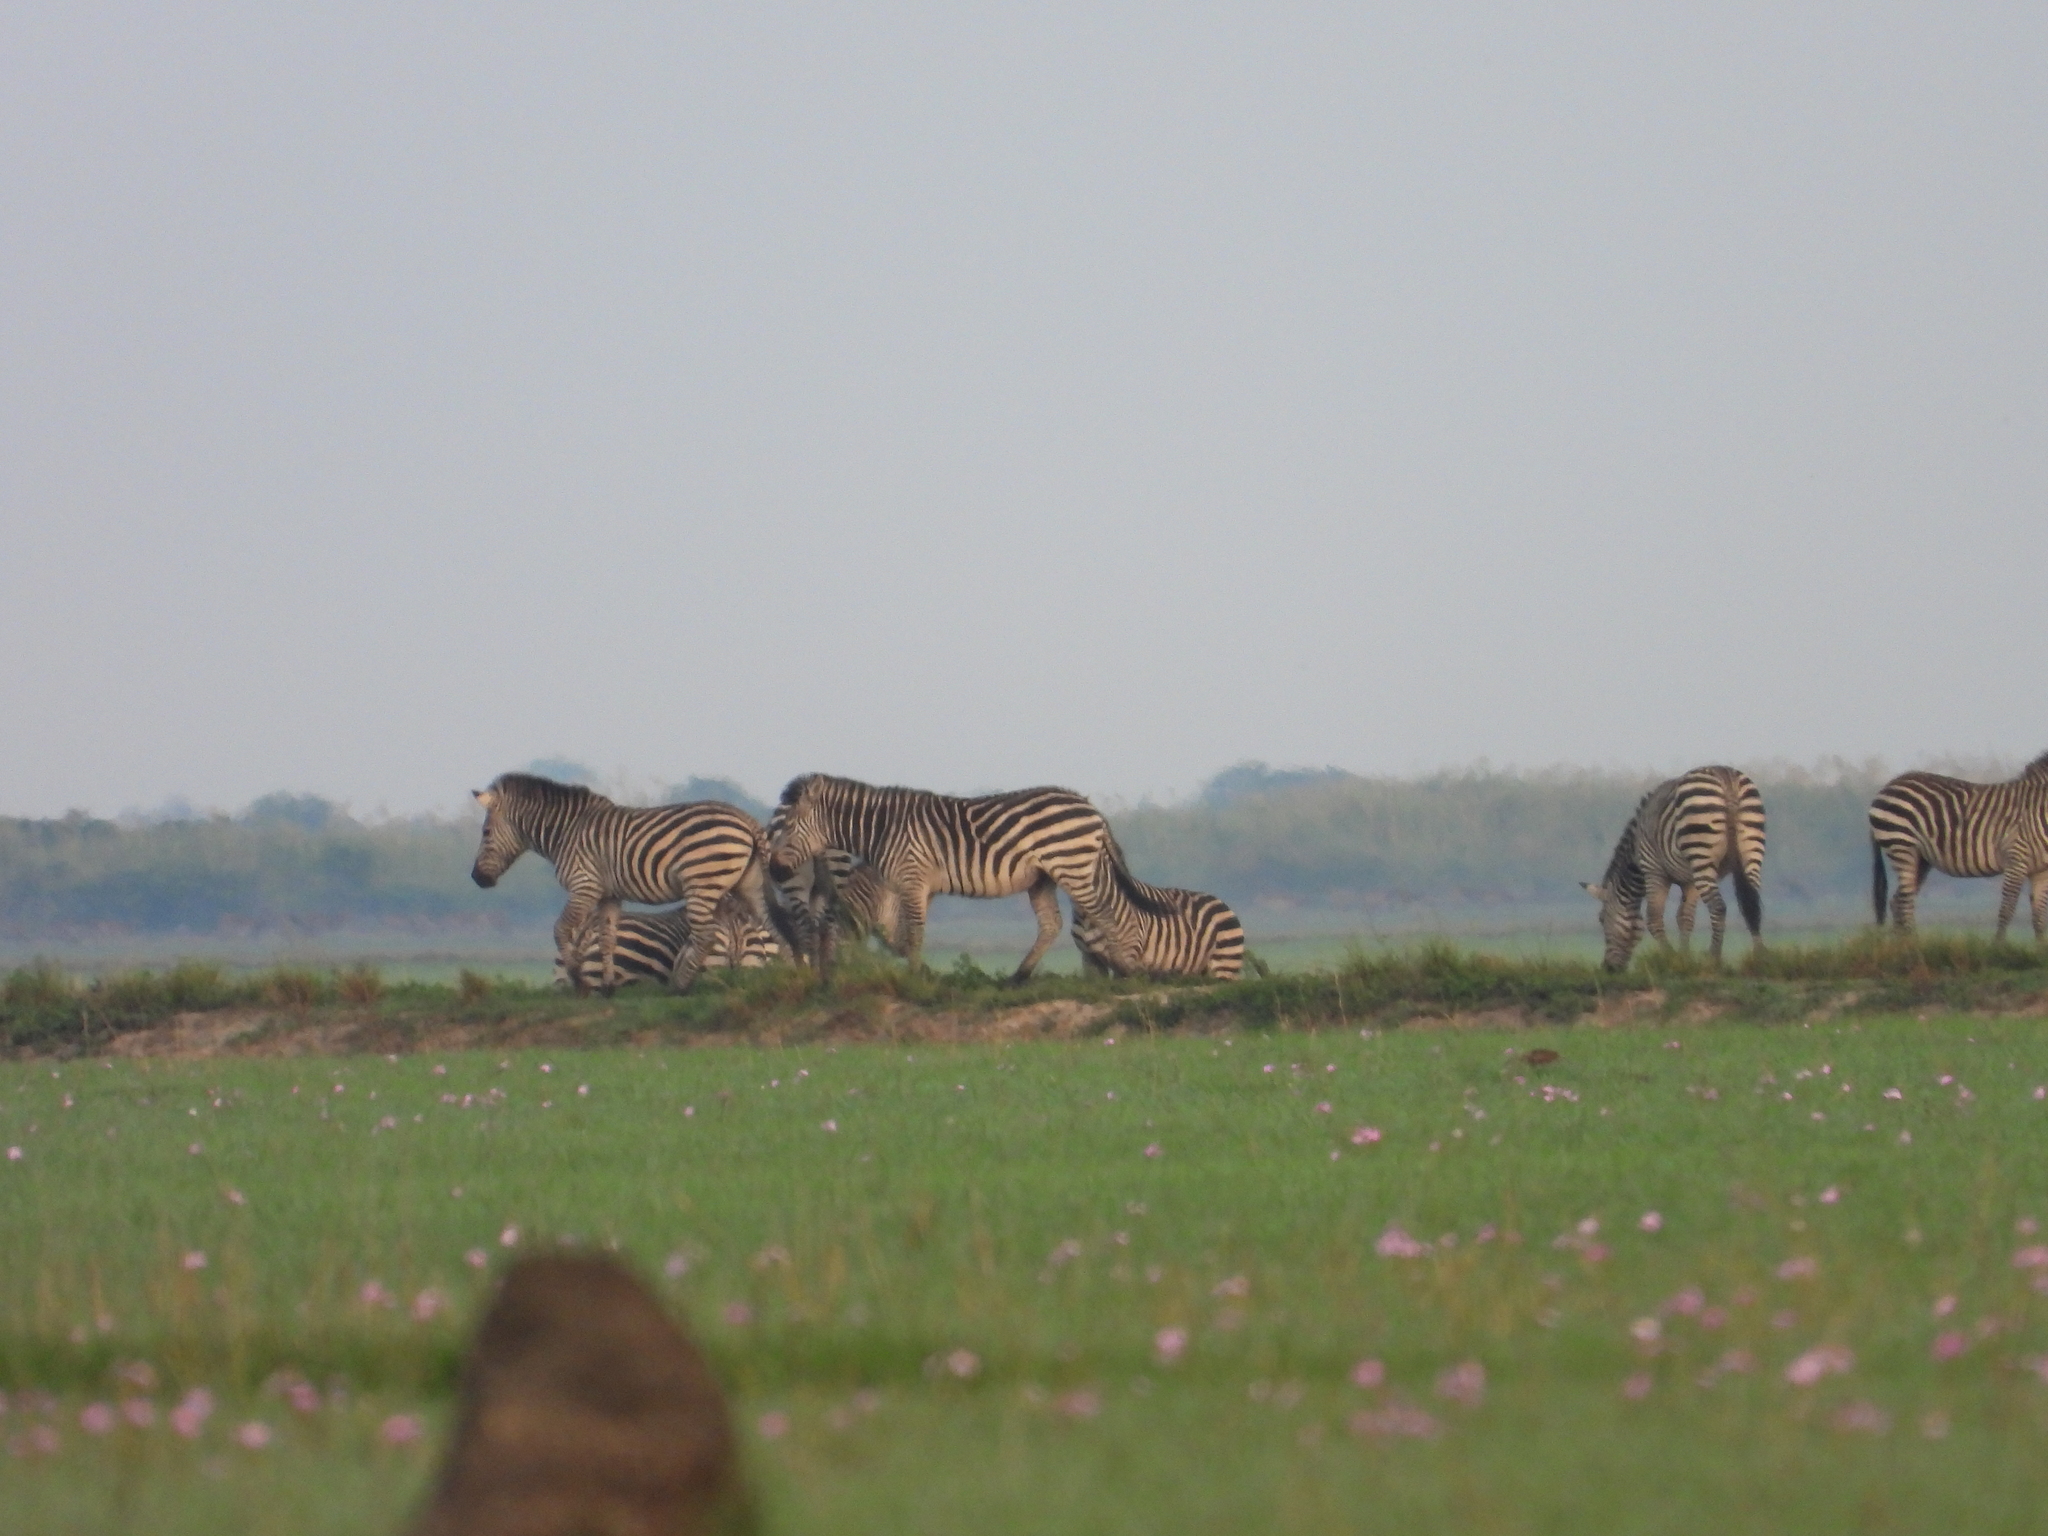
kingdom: Animalia
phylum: Chordata
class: Mammalia
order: Perissodactyla
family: Equidae
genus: Equus
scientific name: Equus quagga
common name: Plains zebra
